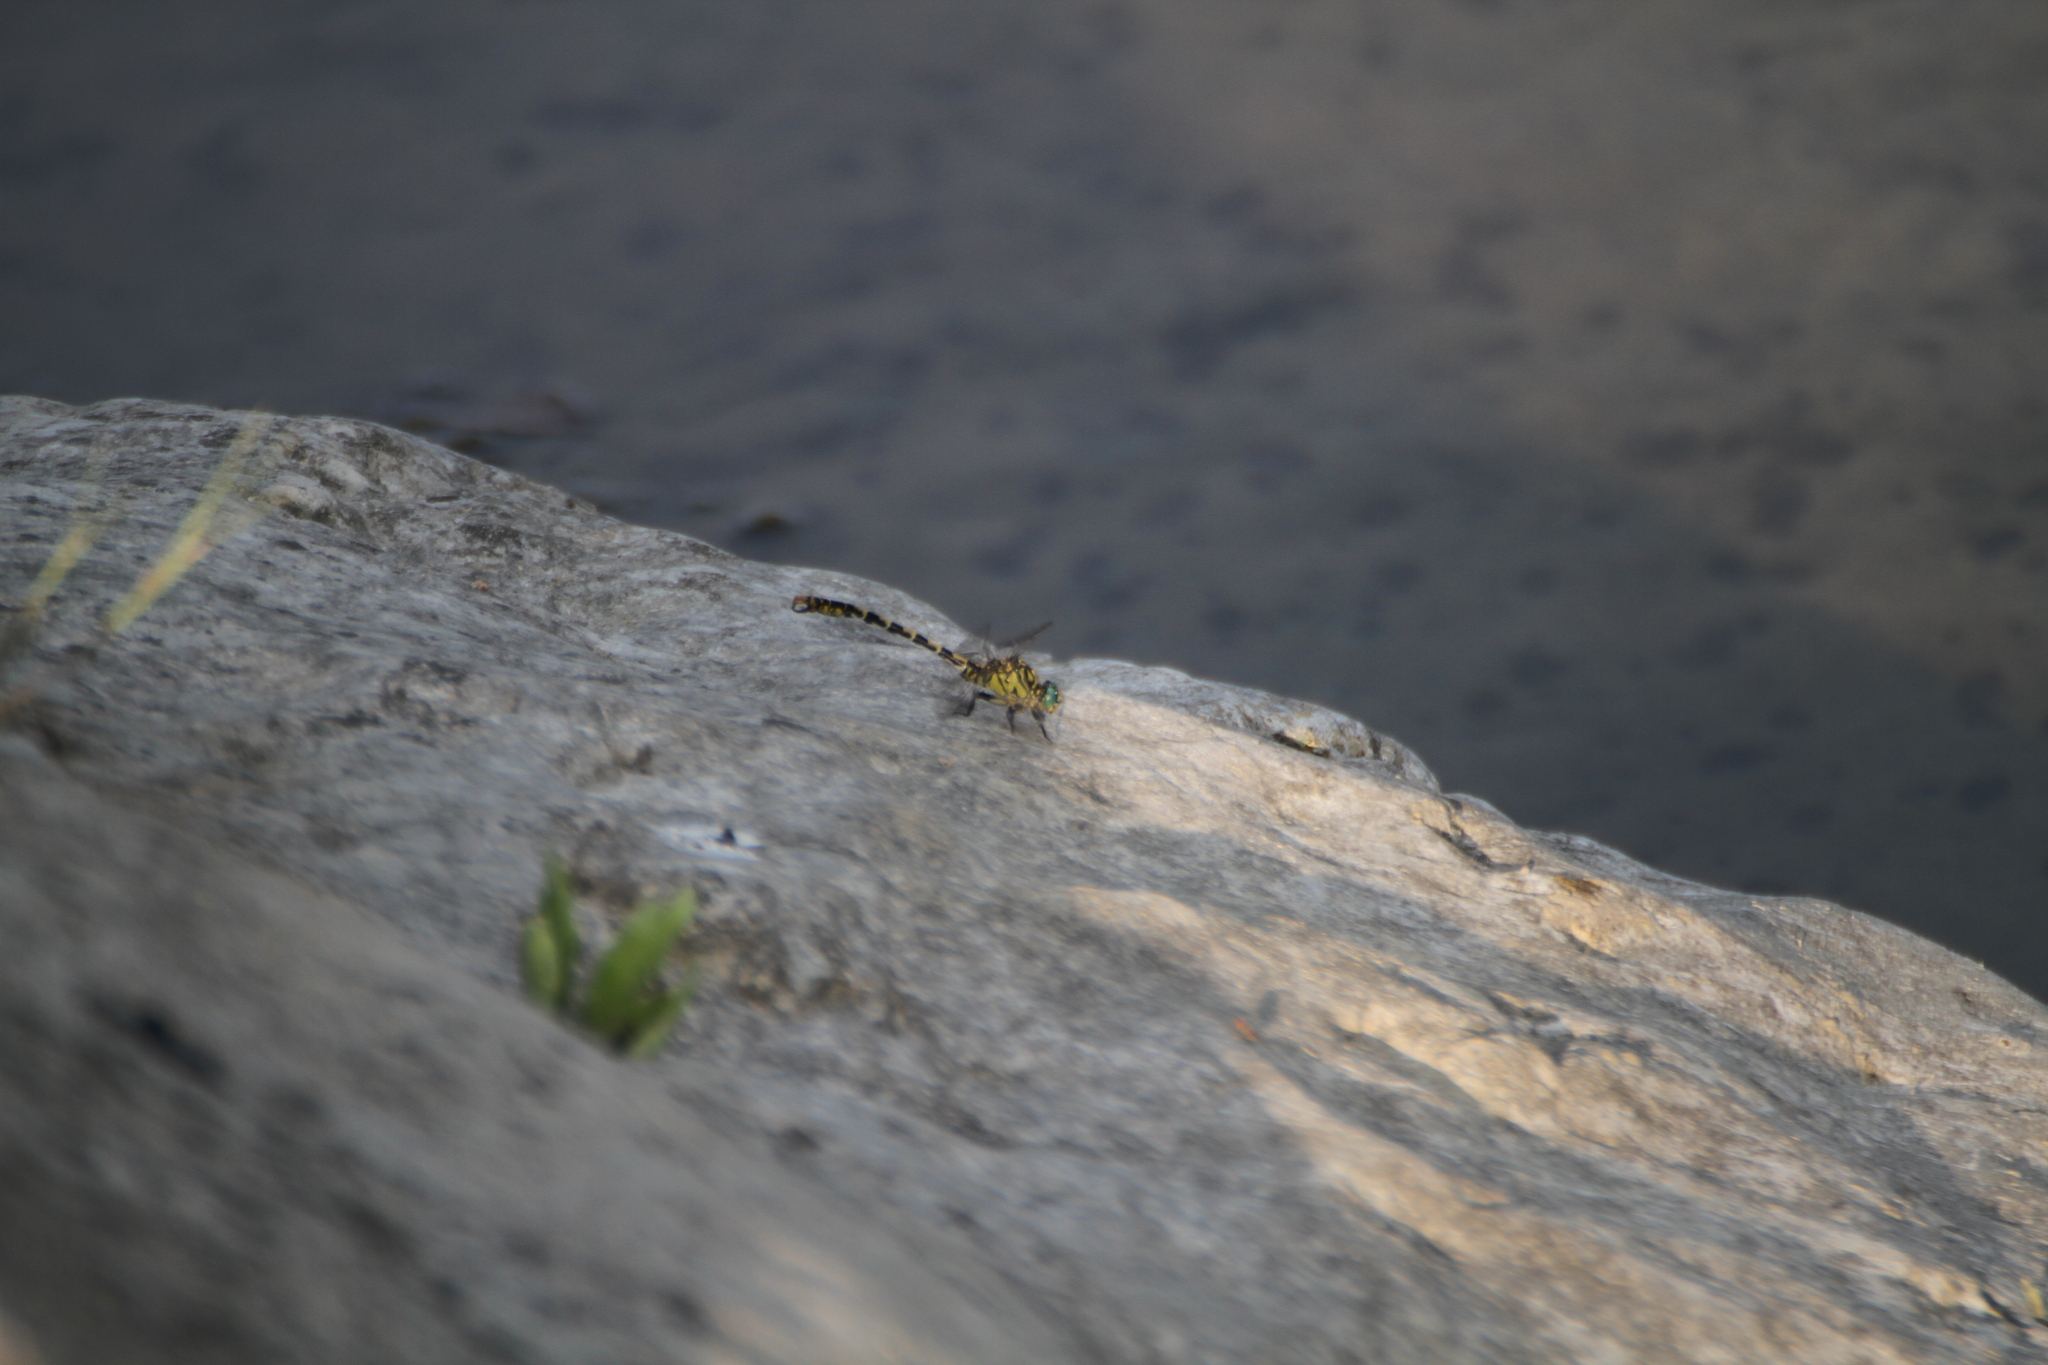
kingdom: Animalia
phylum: Arthropoda
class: Insecta
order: Odonata
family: Gomphidae
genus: Onychogomphus
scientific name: Onychogomphus forcipatus
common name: Small pincertail
